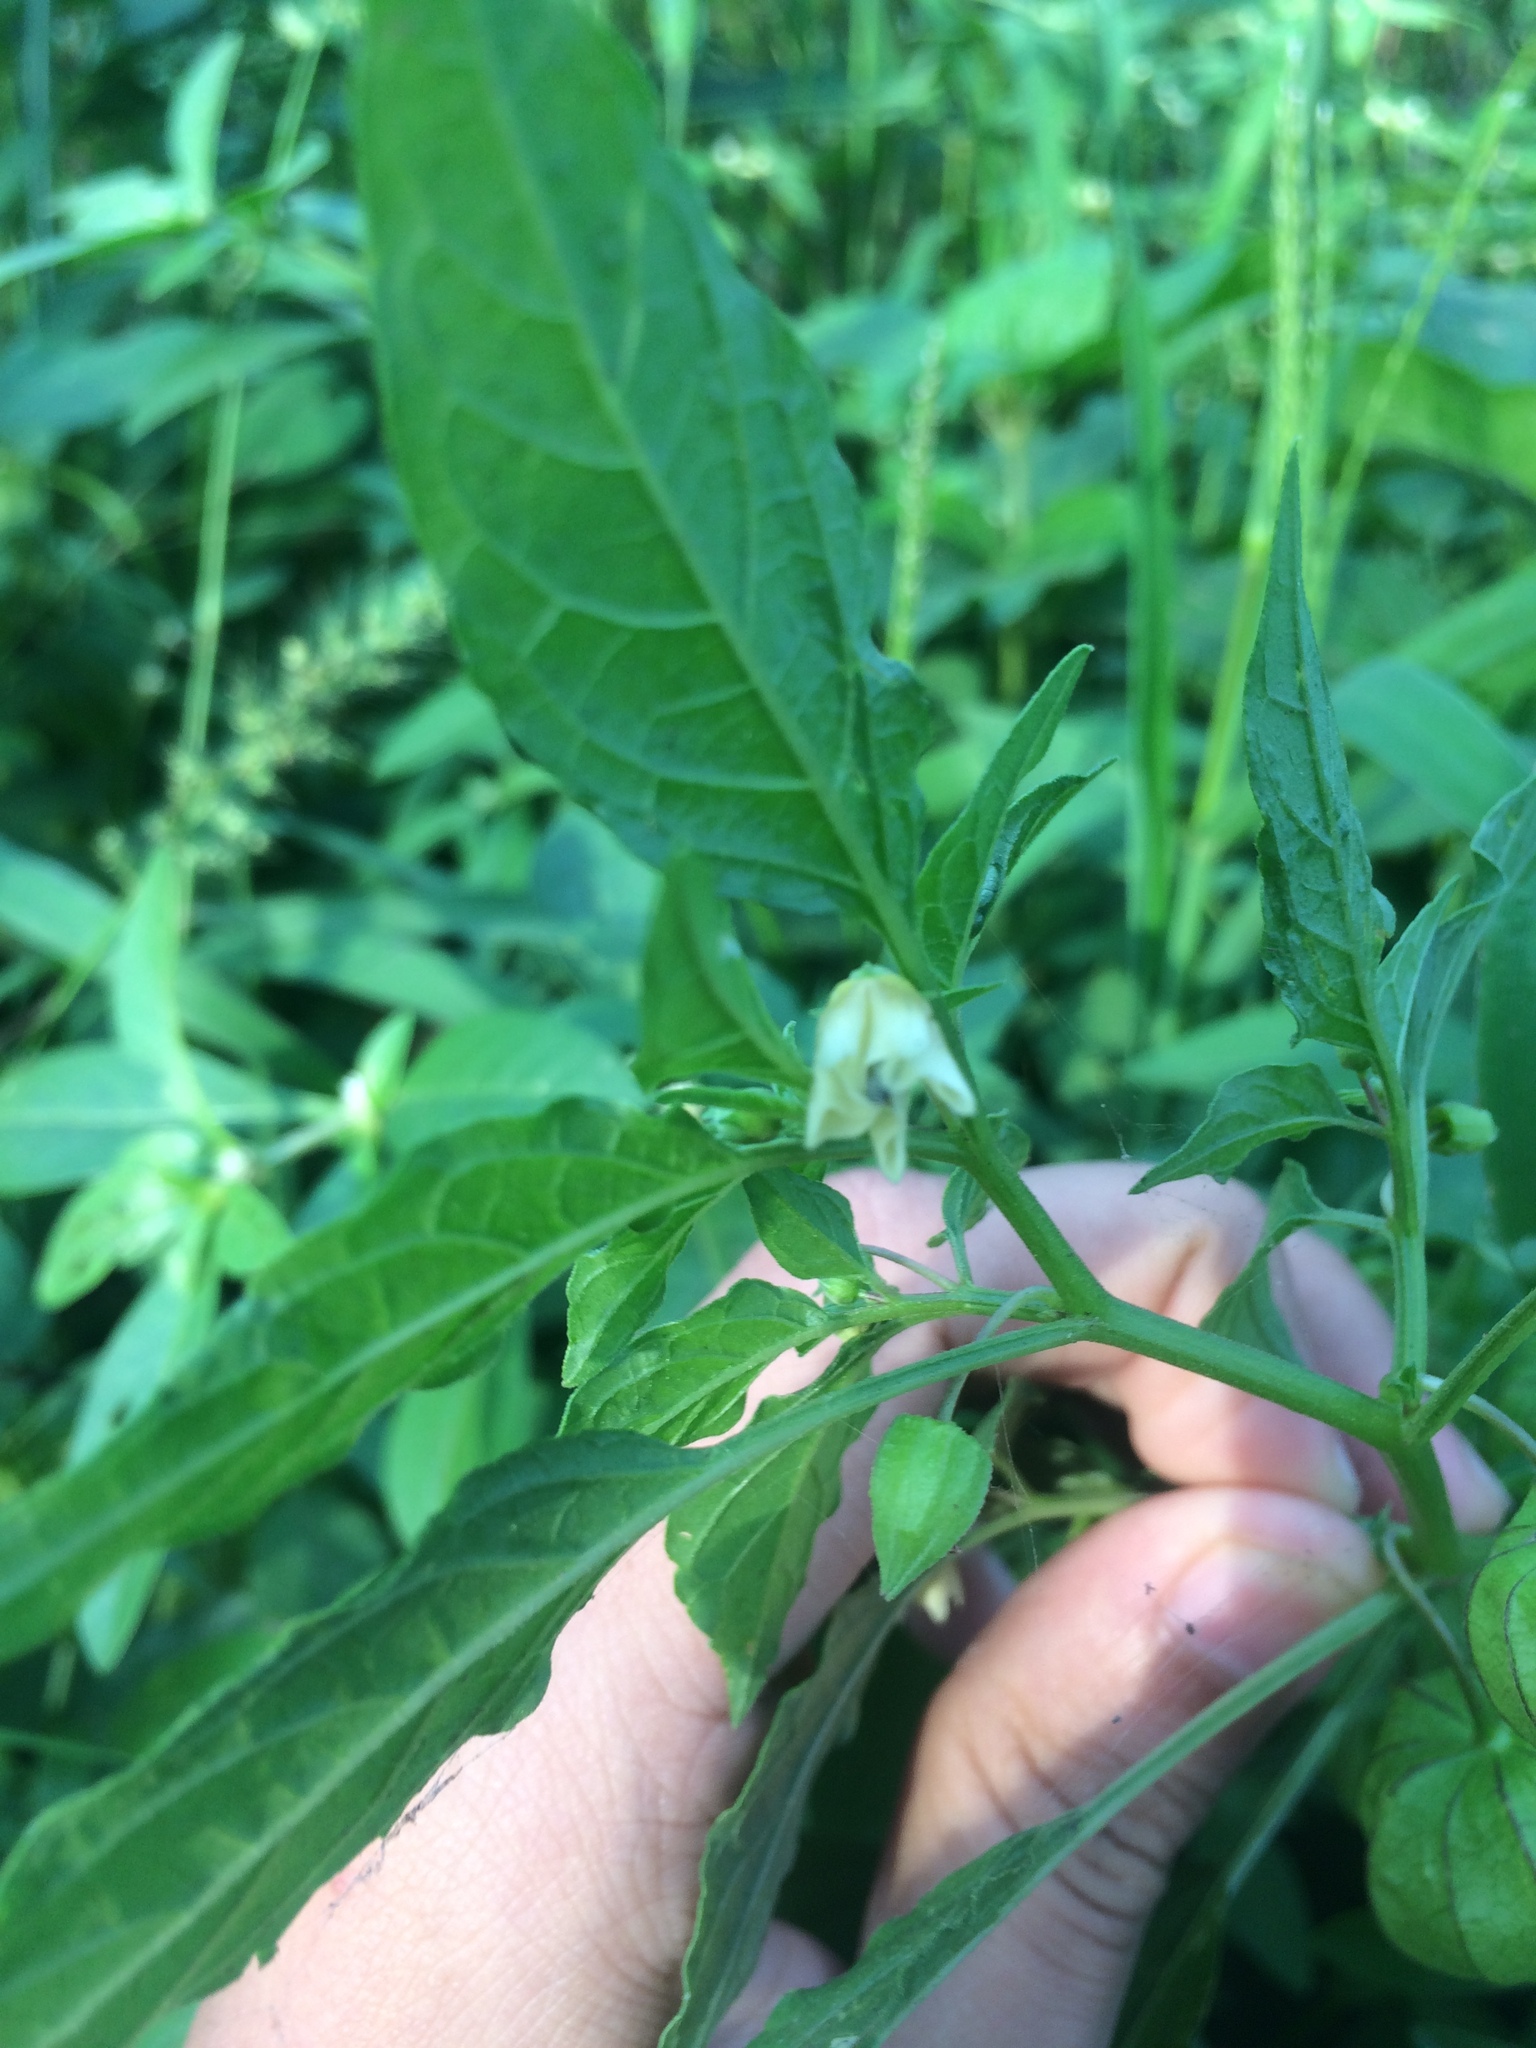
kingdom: Plantae
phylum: Tracheophyta
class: Magnoliopsida
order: Solanales
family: Solanaceae
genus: Physalis
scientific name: Physalis angulata
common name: Angular winter-cherry
